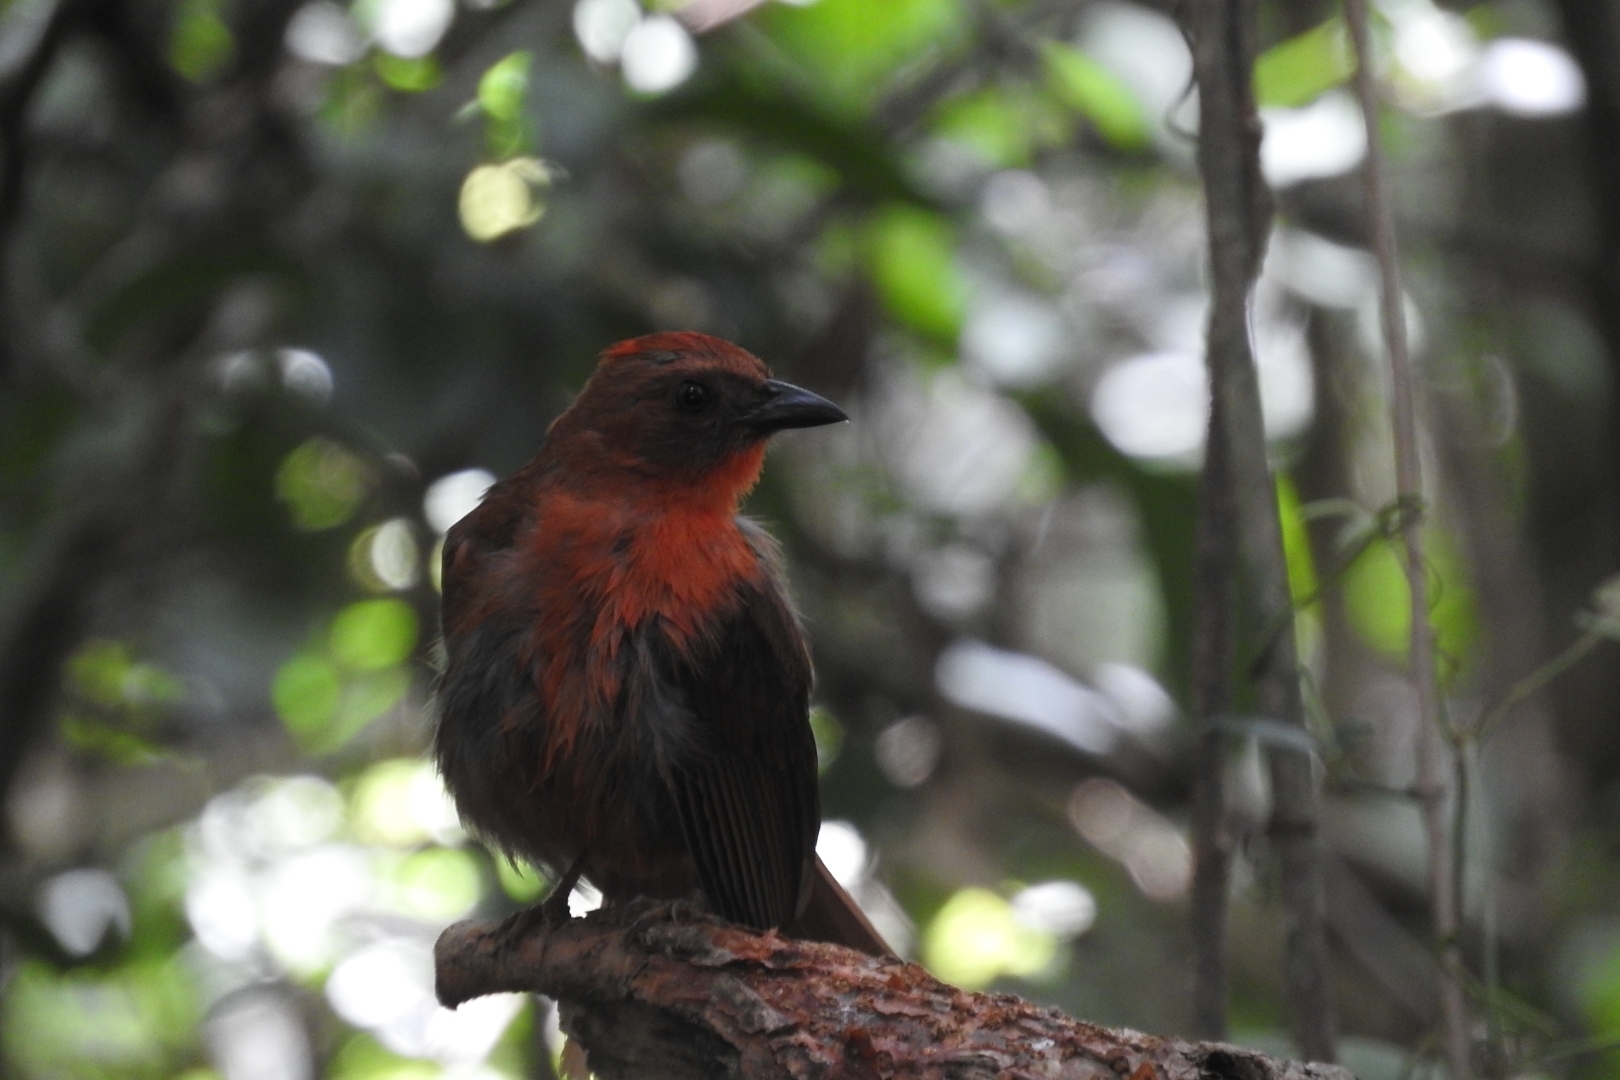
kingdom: Animalia
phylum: Chordata
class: Aves
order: Passeriformes
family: Cardinalidae
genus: Habia
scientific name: Habia fuscicauda
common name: Red-throated ant-tanager
